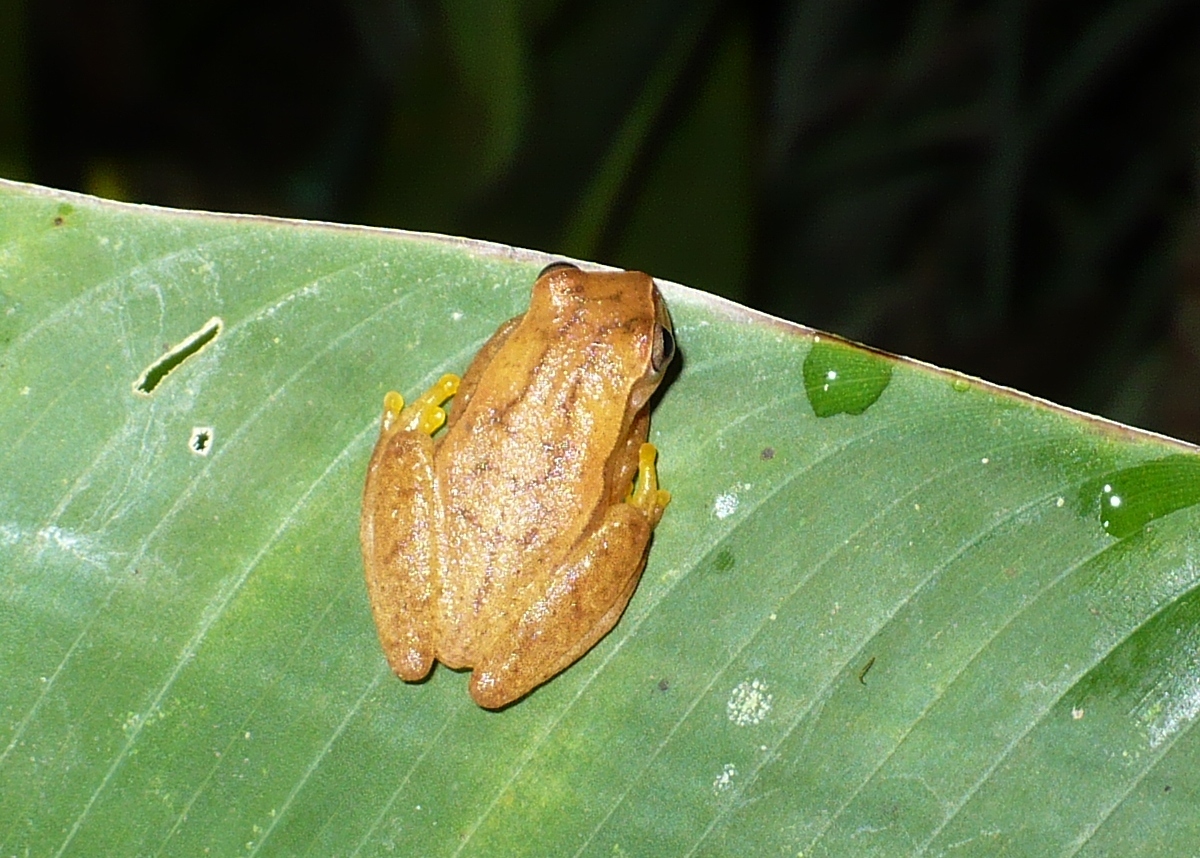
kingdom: Animalia
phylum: Chordata
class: Amphibia
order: Anura
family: Hylidae
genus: Dendropsophus
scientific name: Dendropsophus microcephalus
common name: Small-headed treefrog
